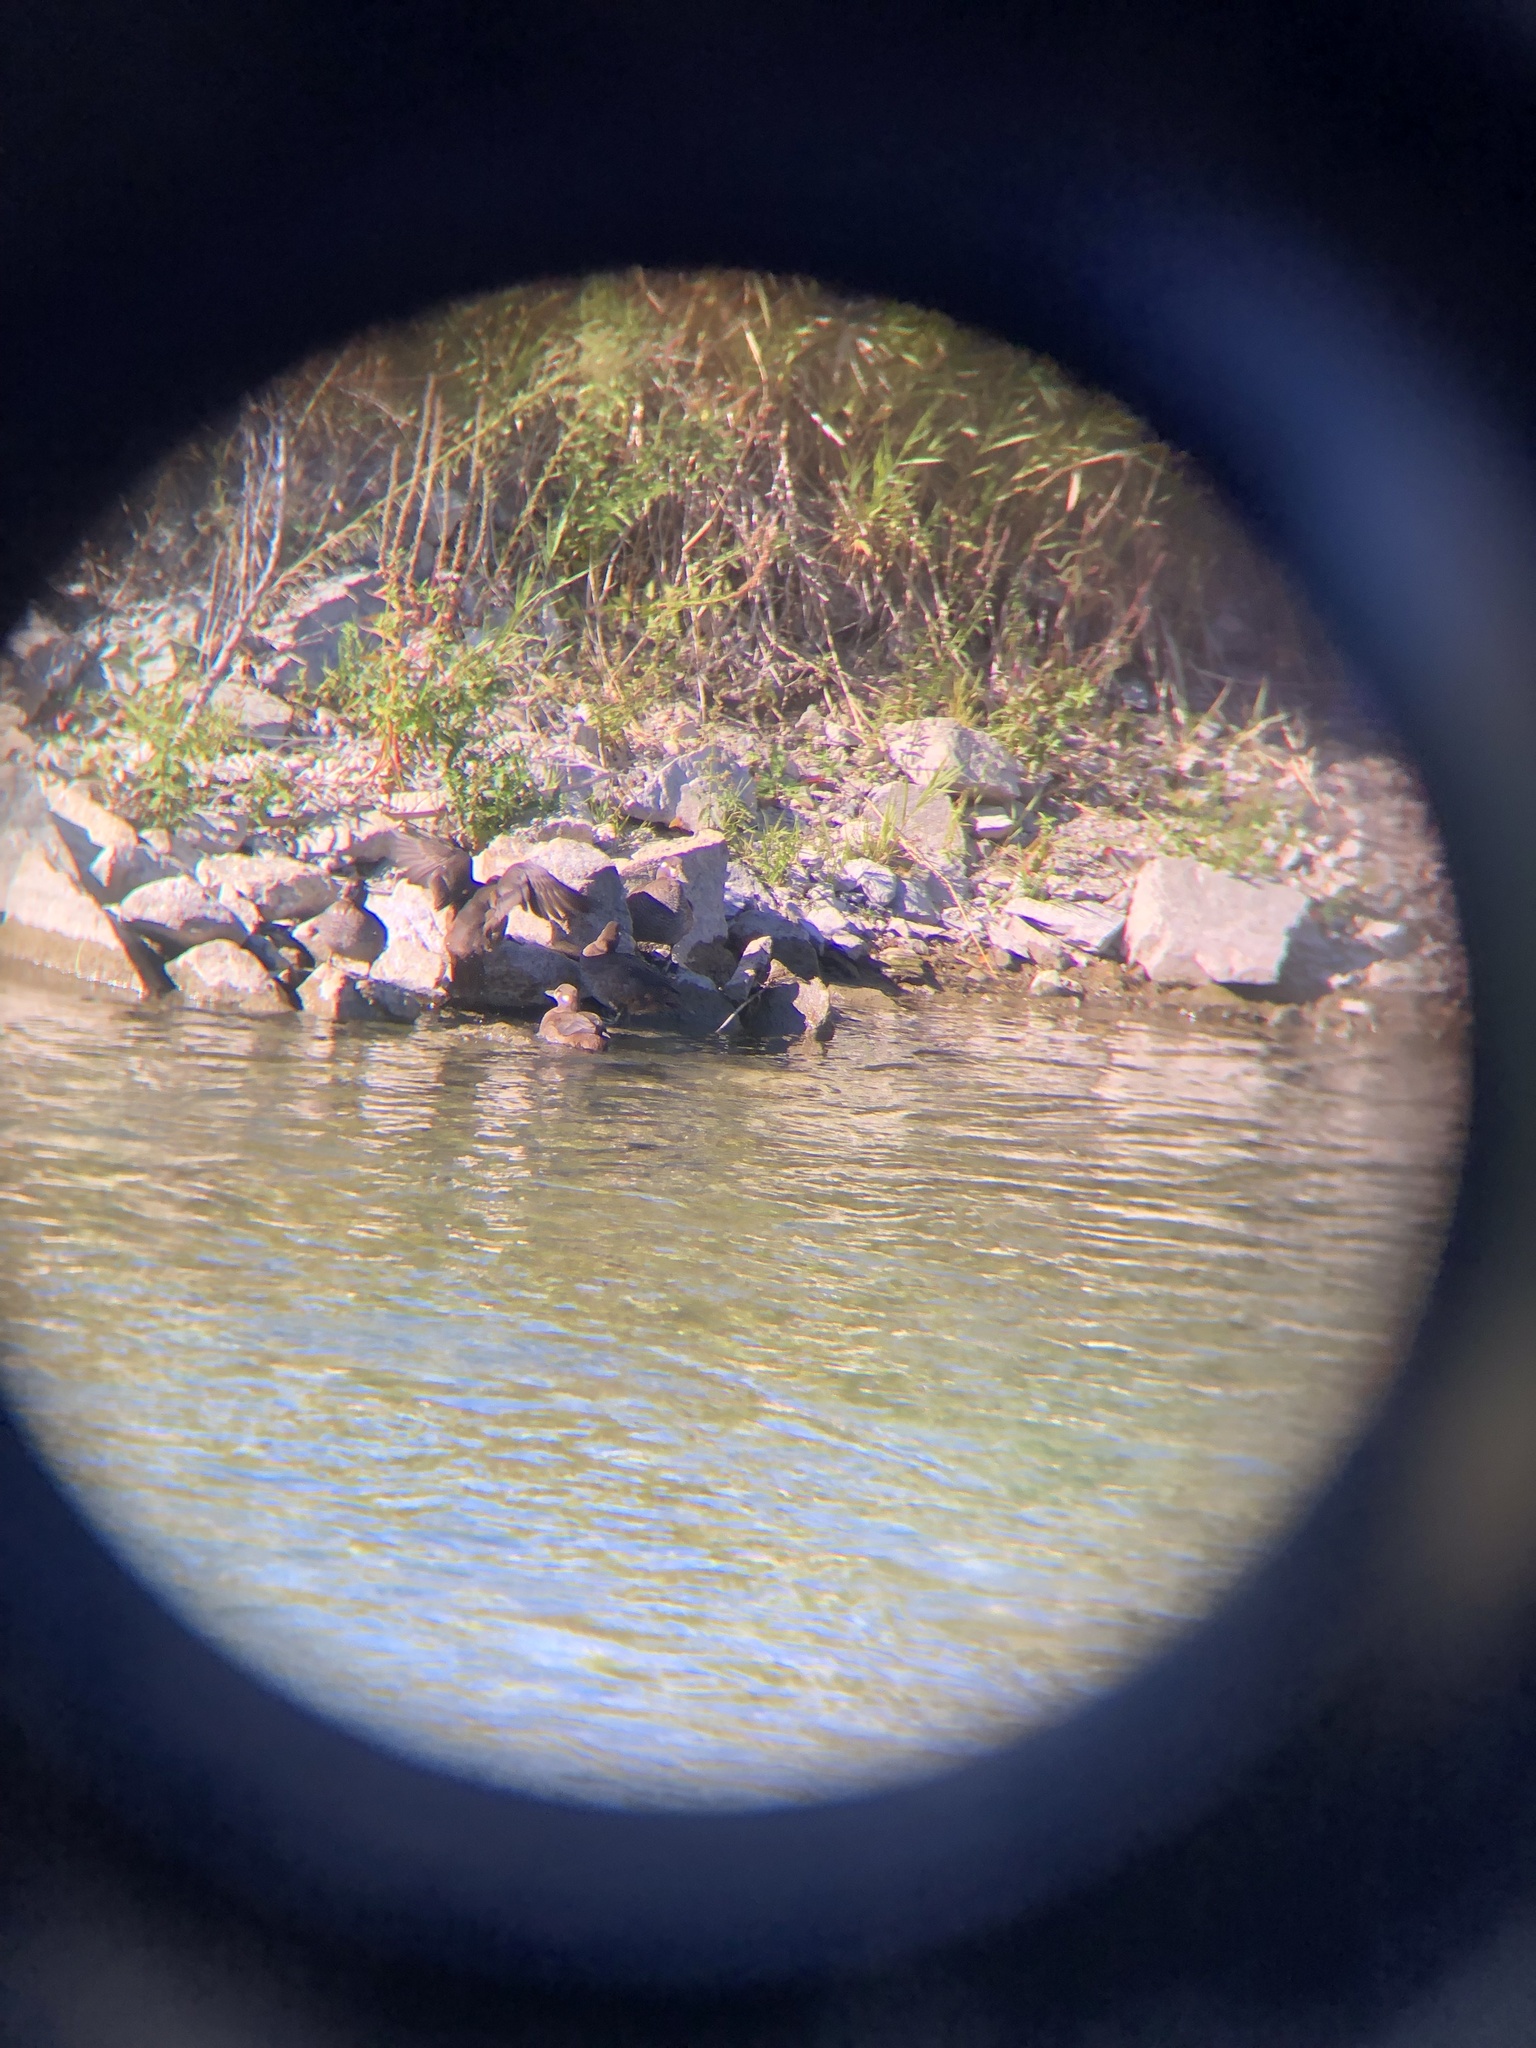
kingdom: Animalia
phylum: Chordata
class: Aves
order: Anseriformes
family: Anatidae
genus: Histrionicus
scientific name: Histrionicus histrionicus
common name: Harlequin duck
